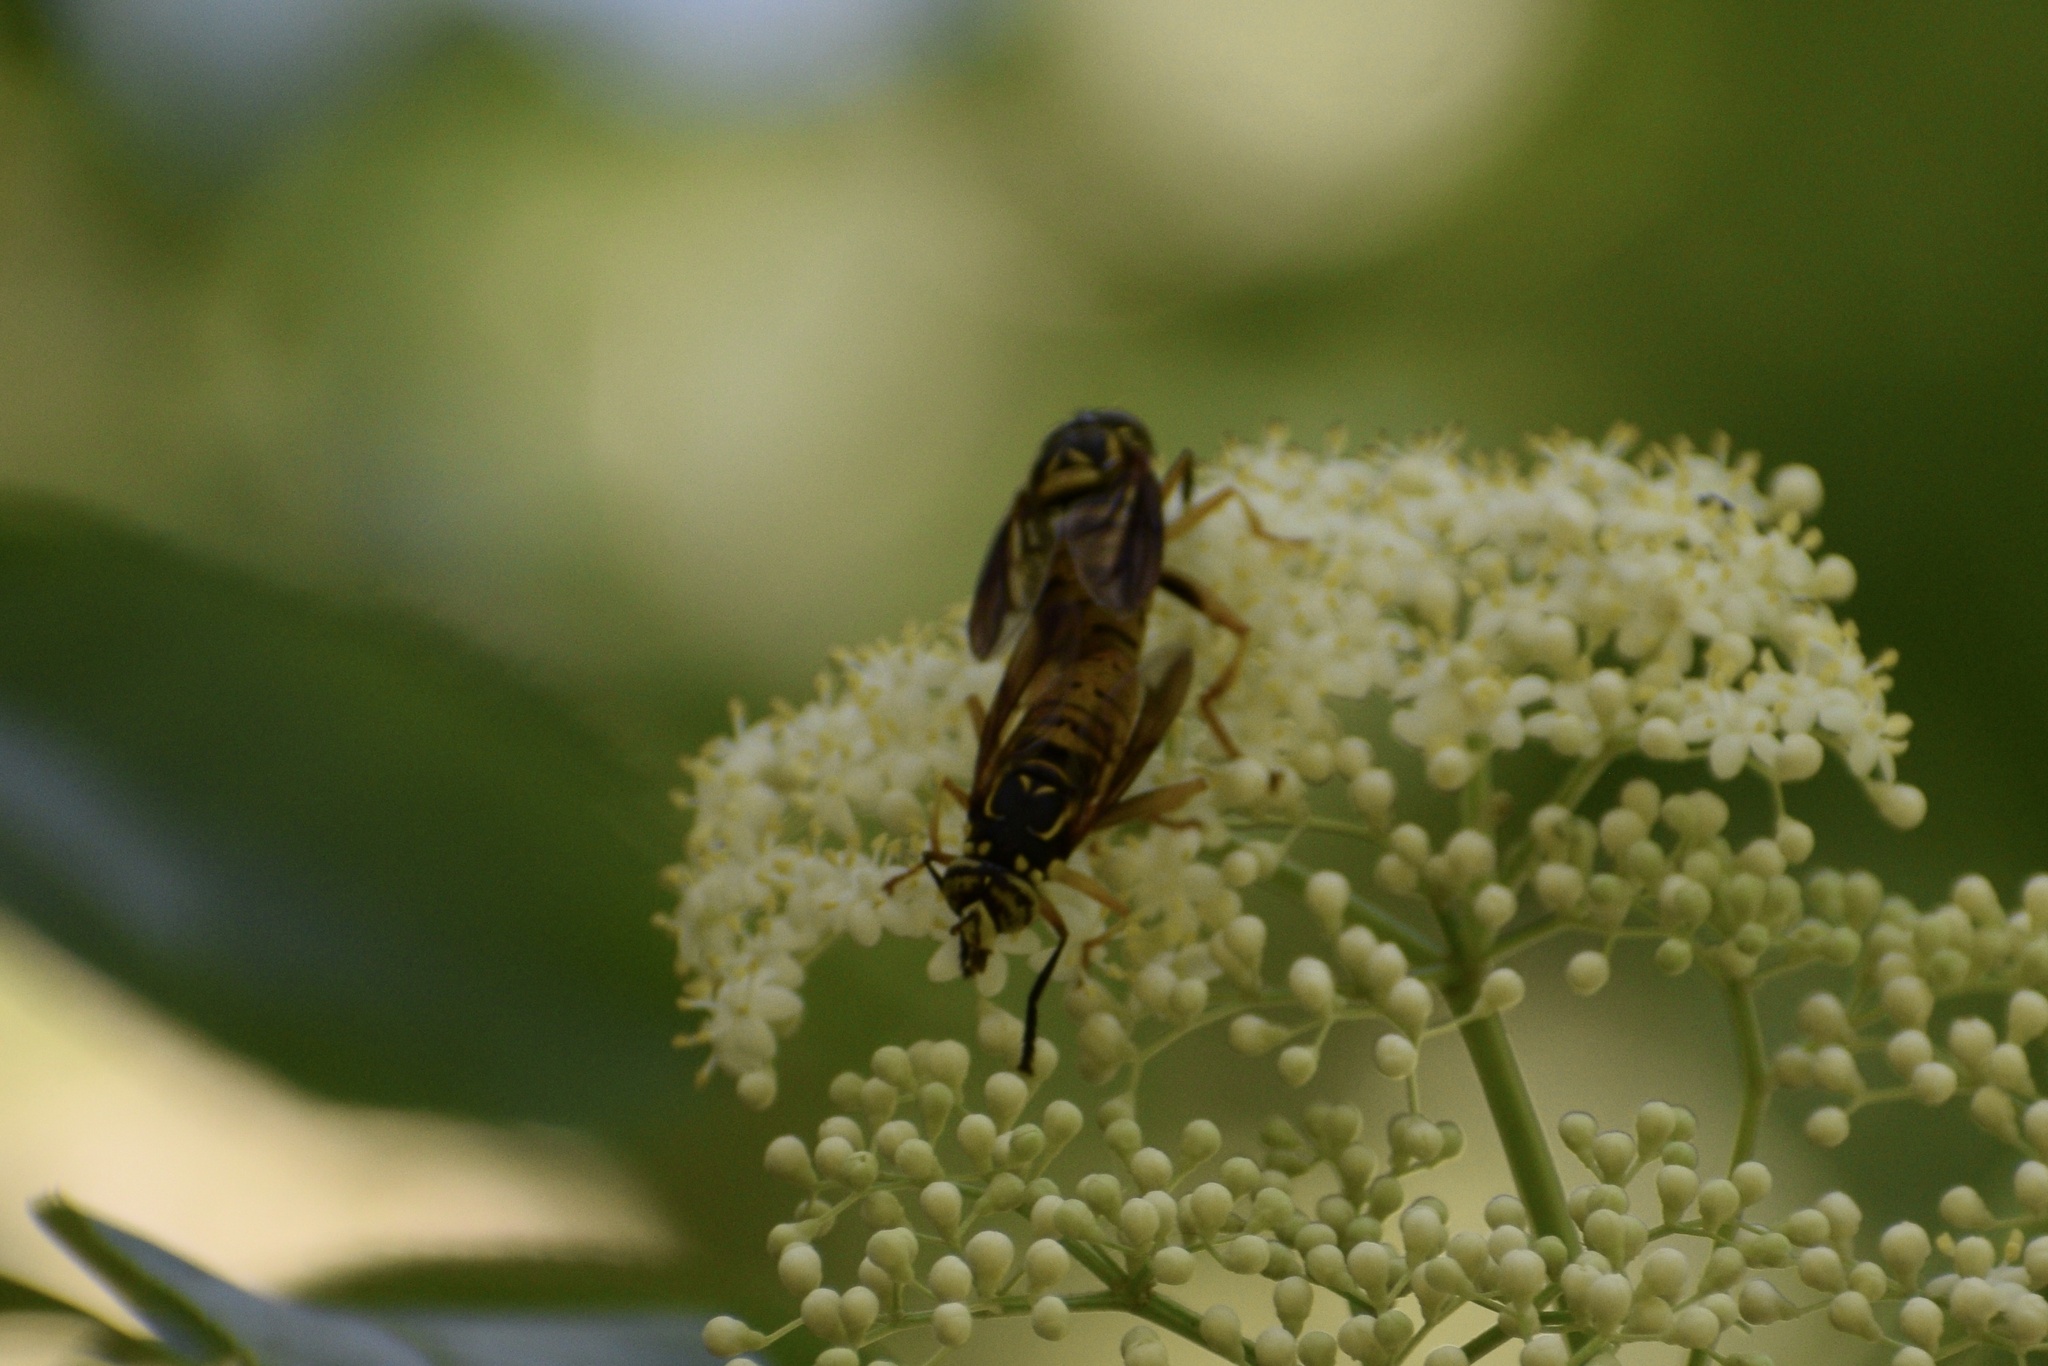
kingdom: Animalia
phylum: Arthropoda
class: Insecta
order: Diptera
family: Syrphidae
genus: Spilomyia
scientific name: Spilomyia alcimus
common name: Broad-banded hornet fly
